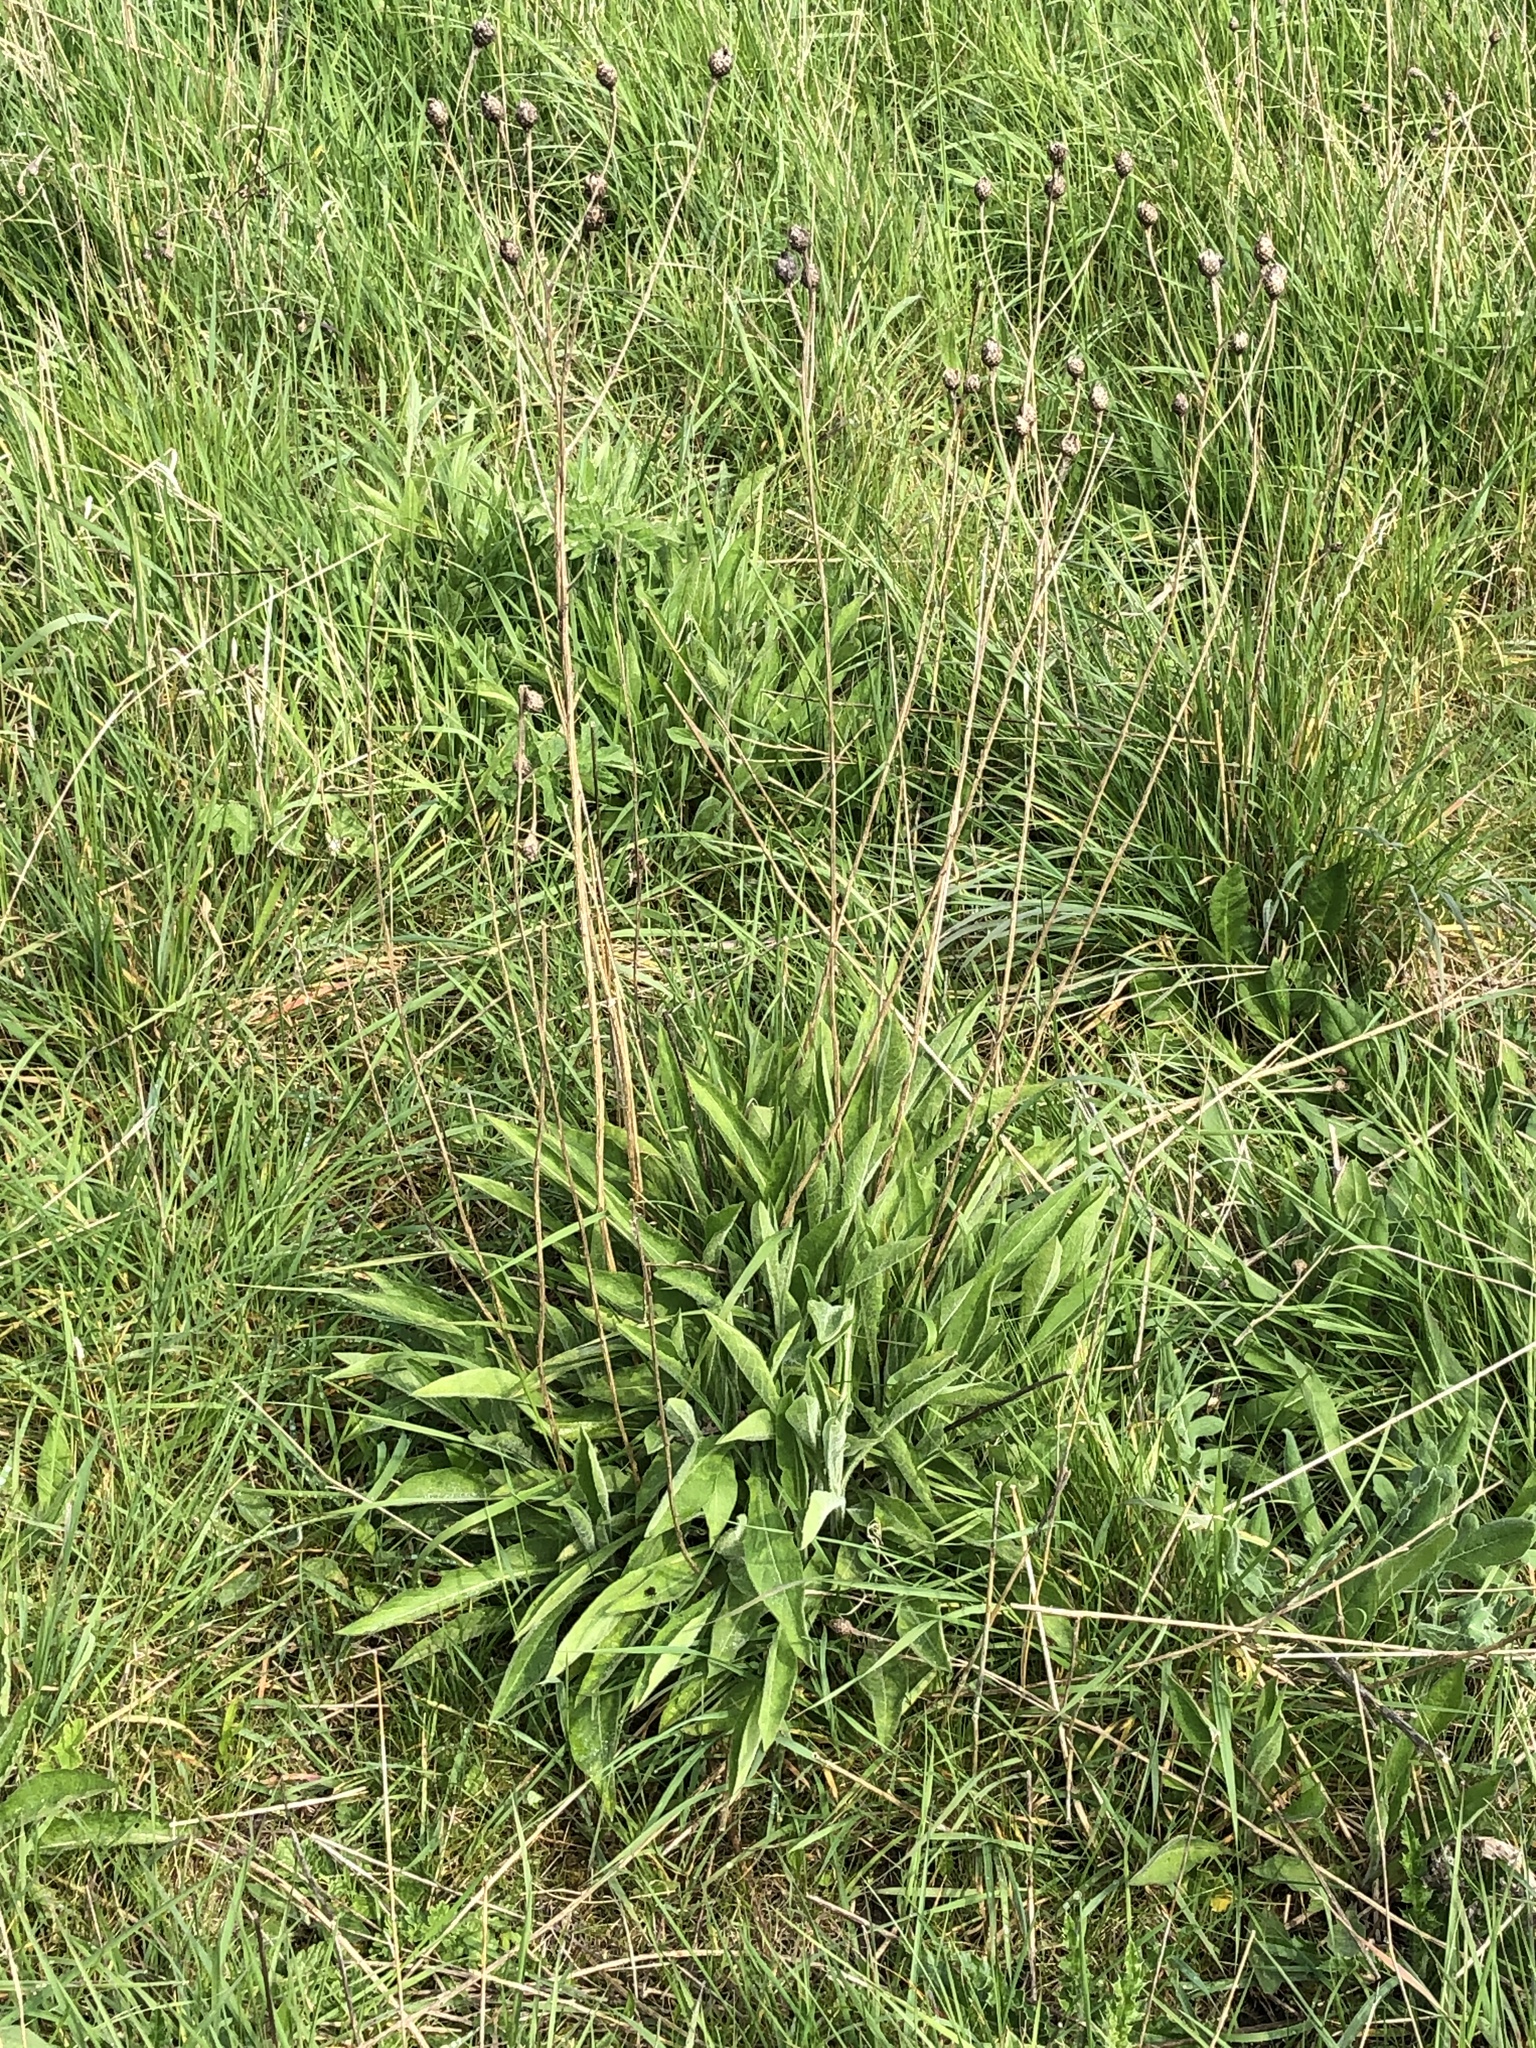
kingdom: Plantae
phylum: Tracheophyta
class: Magnoliopsida
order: Asterales
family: Asteraceae
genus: Centaurea
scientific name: Centaurea nigra
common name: Lesser knapweed
